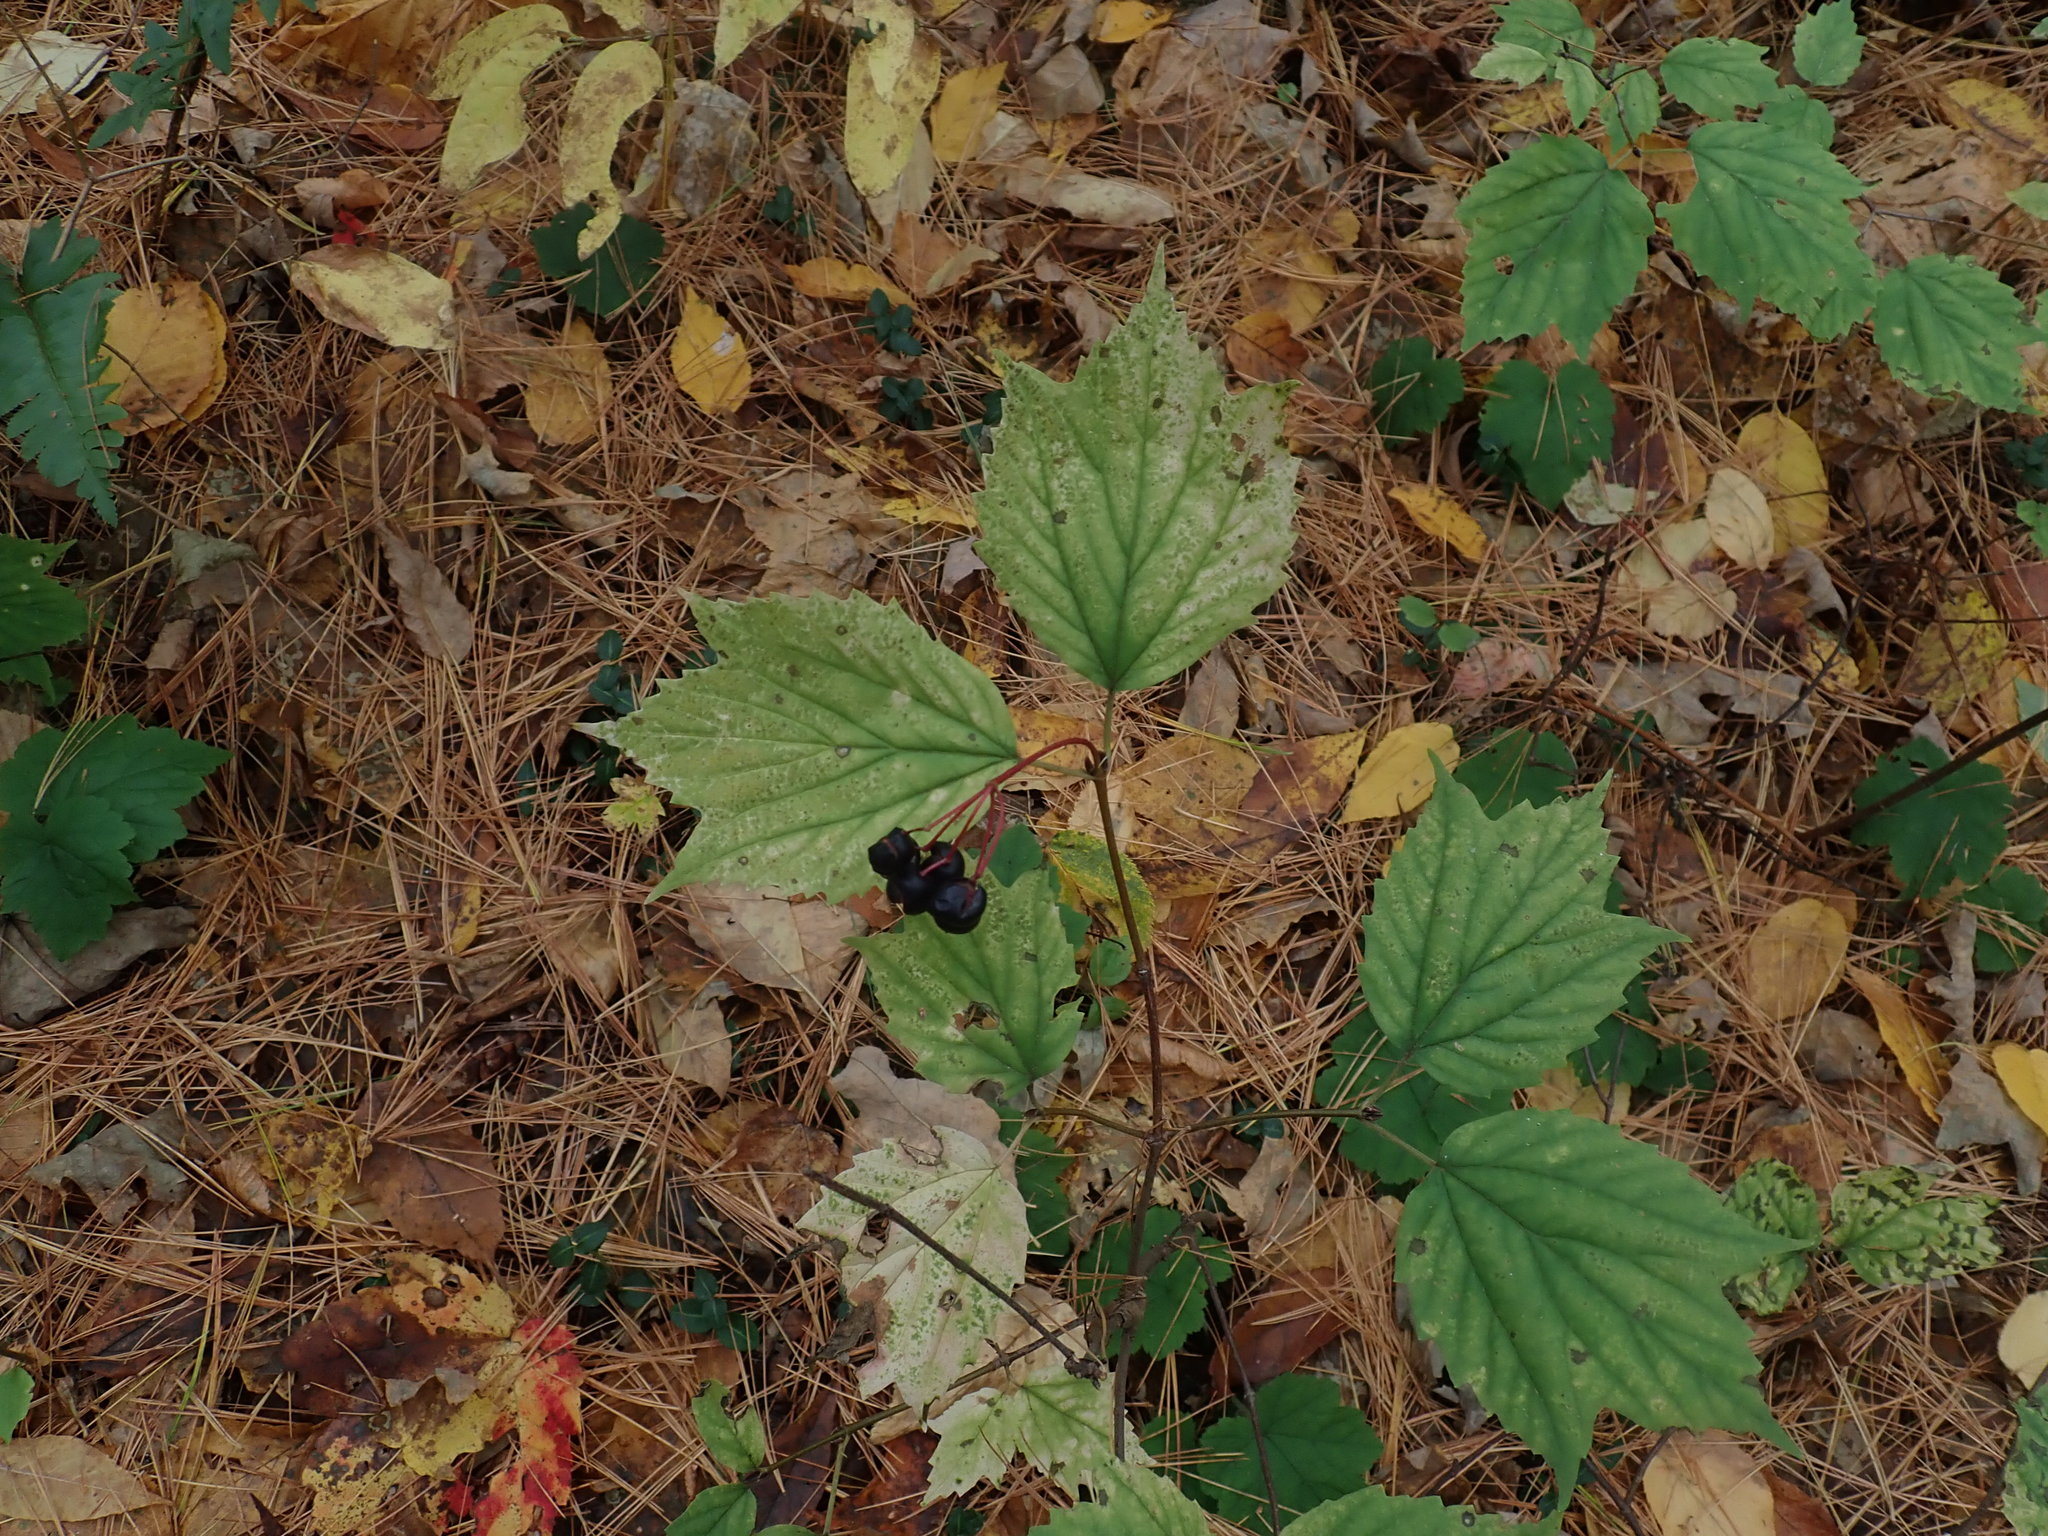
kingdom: Plantae
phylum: Tracheophyta
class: Magnoliopsida
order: Dipsacales
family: Viburnaceae
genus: Viburnum
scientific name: Viburnum acerifolium
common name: Dockmackie
